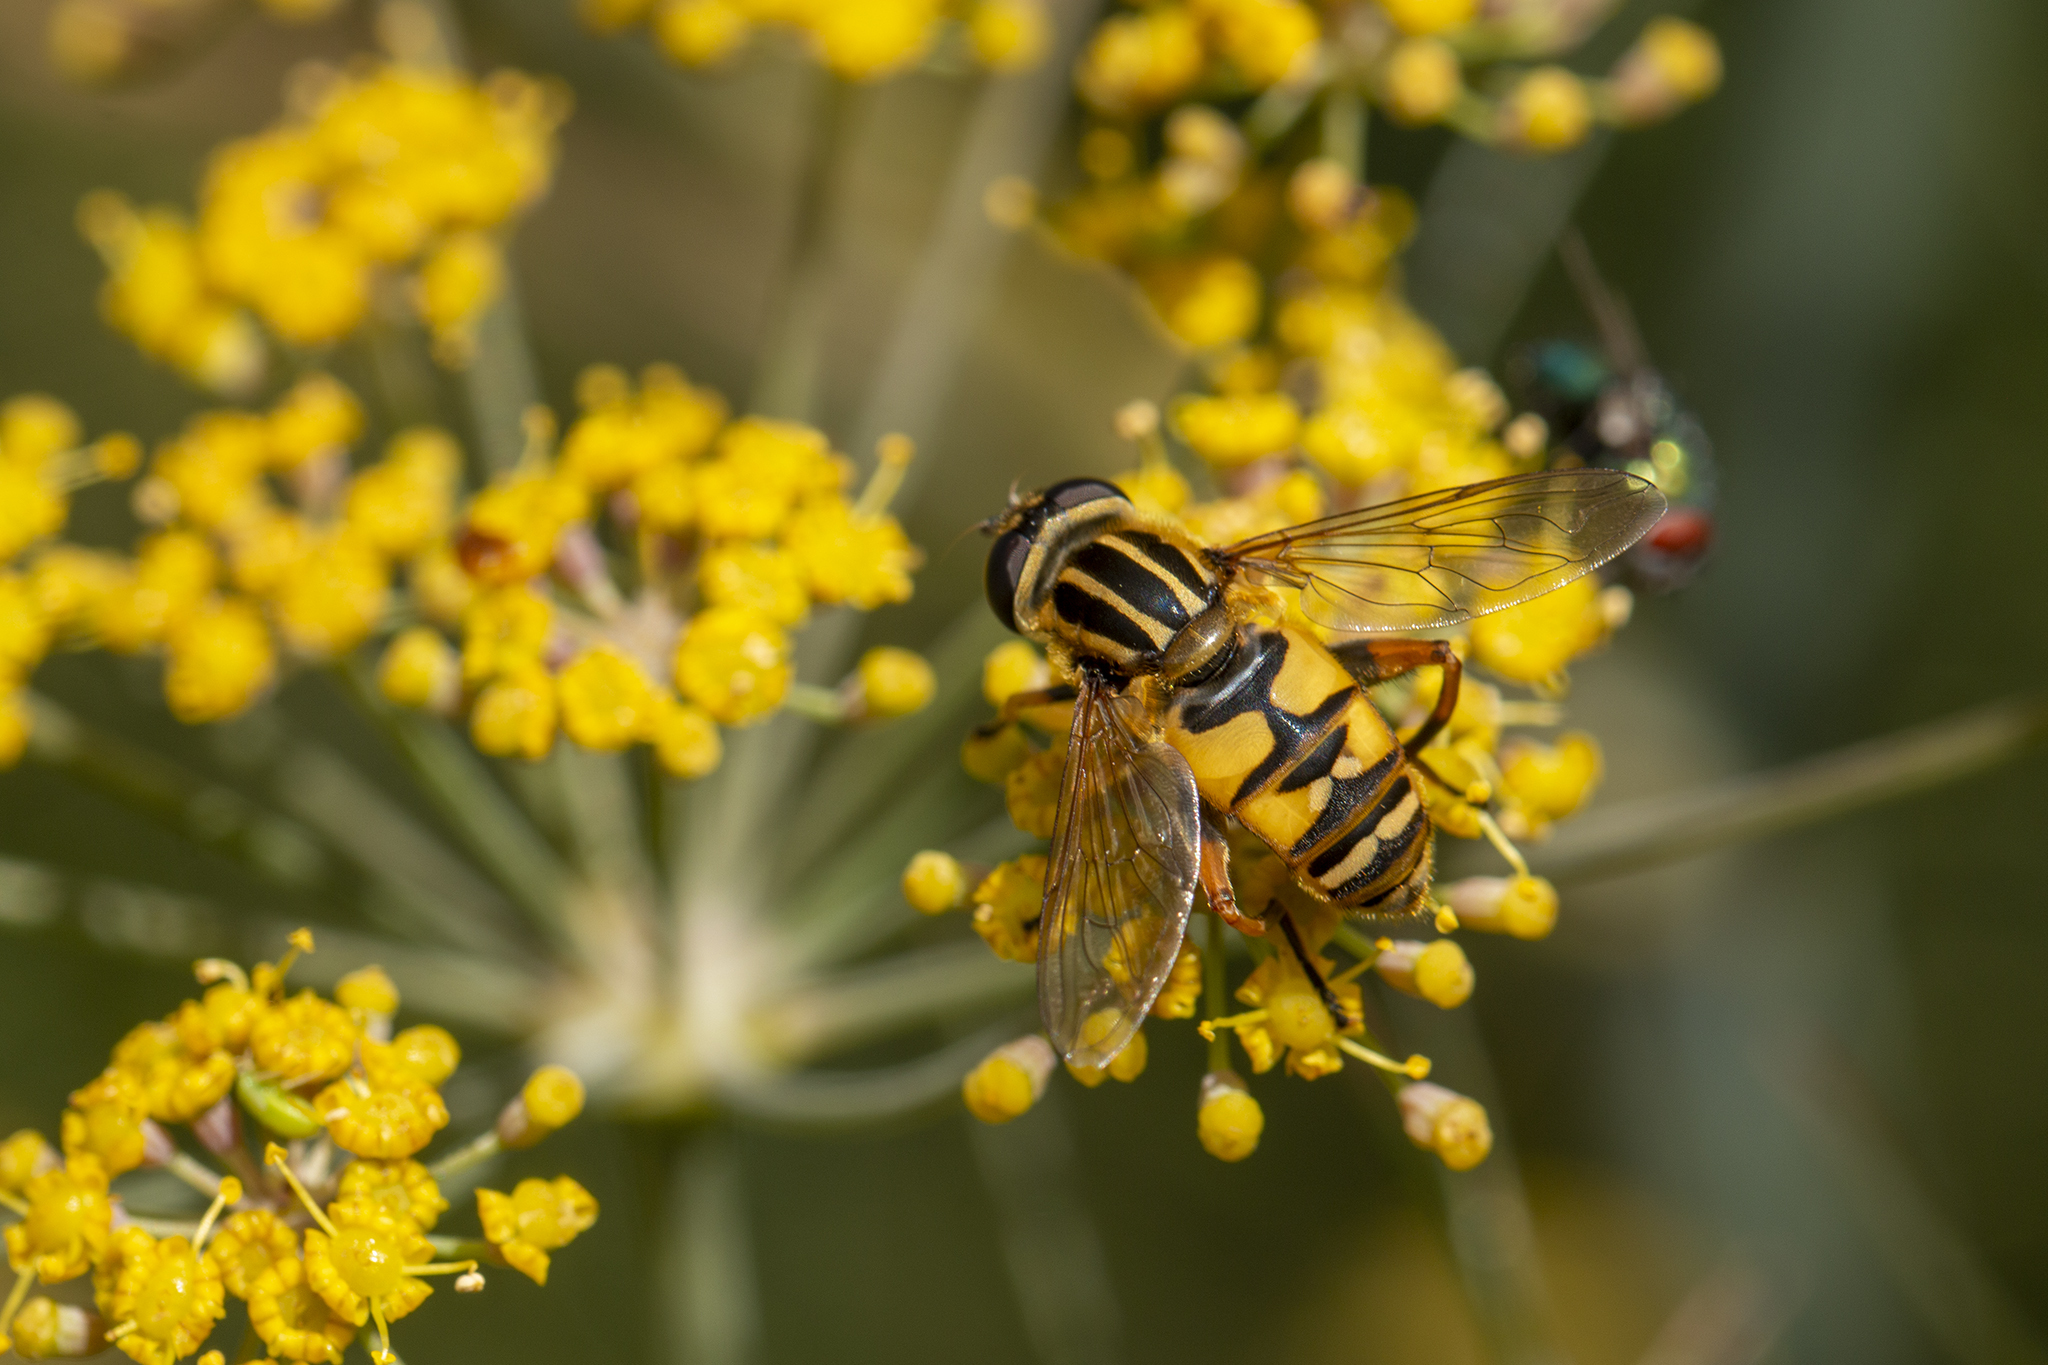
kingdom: Animalia
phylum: Arthropoda
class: Insecta
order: Diptera
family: Syrphidae
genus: Helophilus
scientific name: Helophilus pendulus
